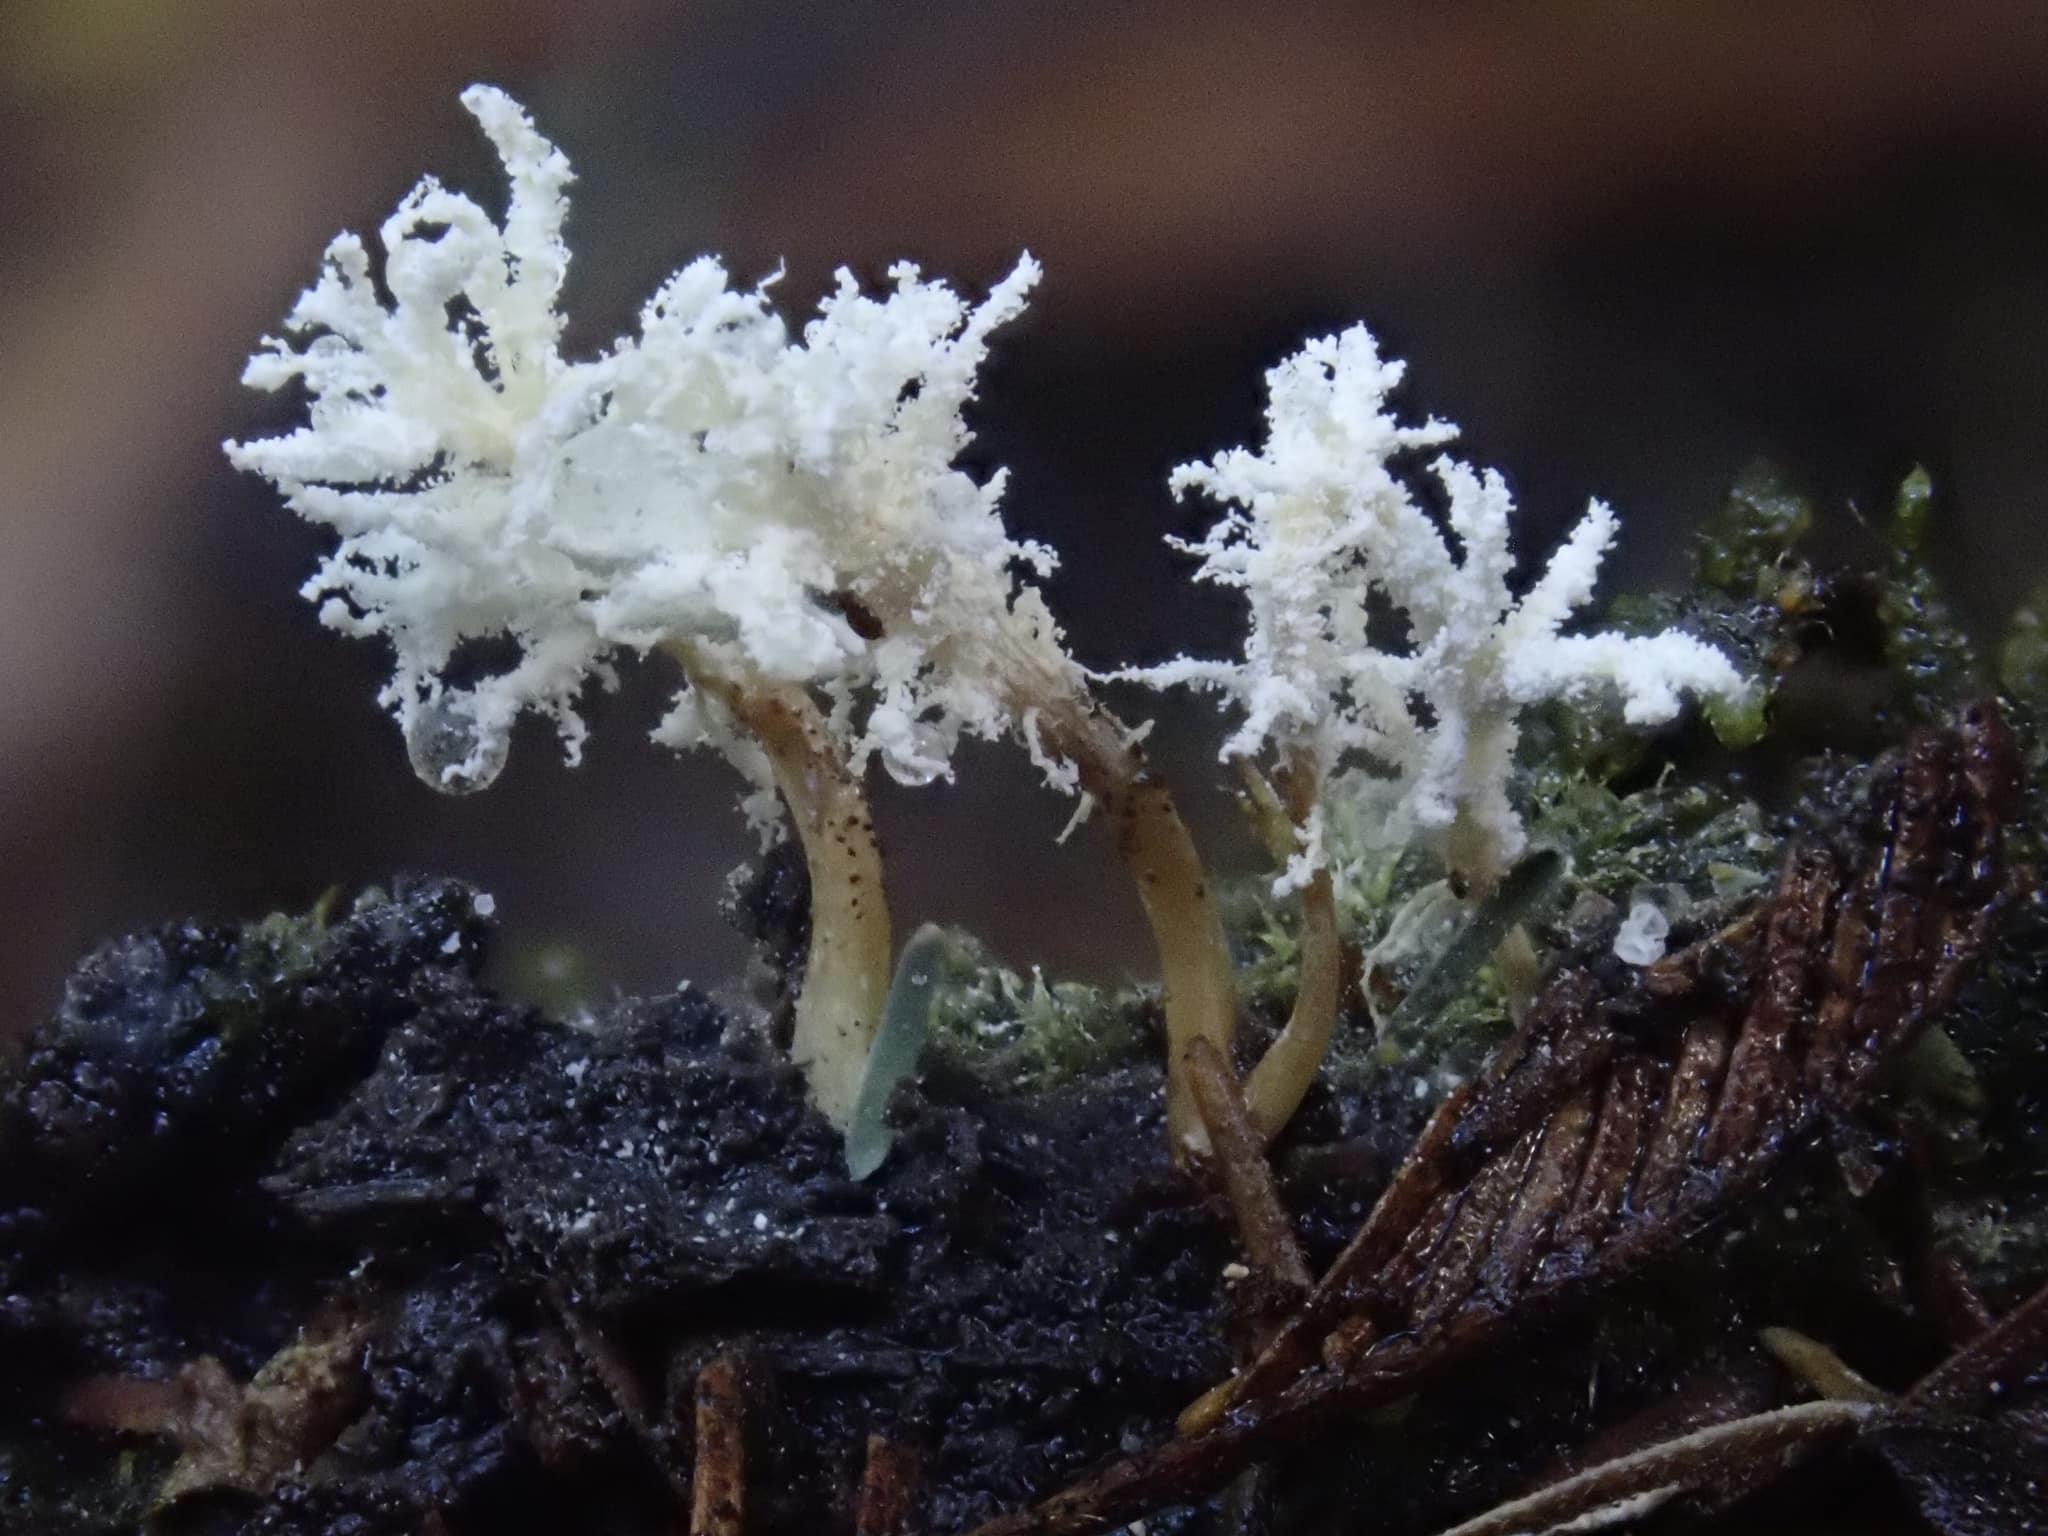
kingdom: Fungi
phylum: Ascomycota
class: Sordariomycetes
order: Hypocreales
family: Cordycipitaceae
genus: Cordyceps
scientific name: Cordyceps tenuipes
